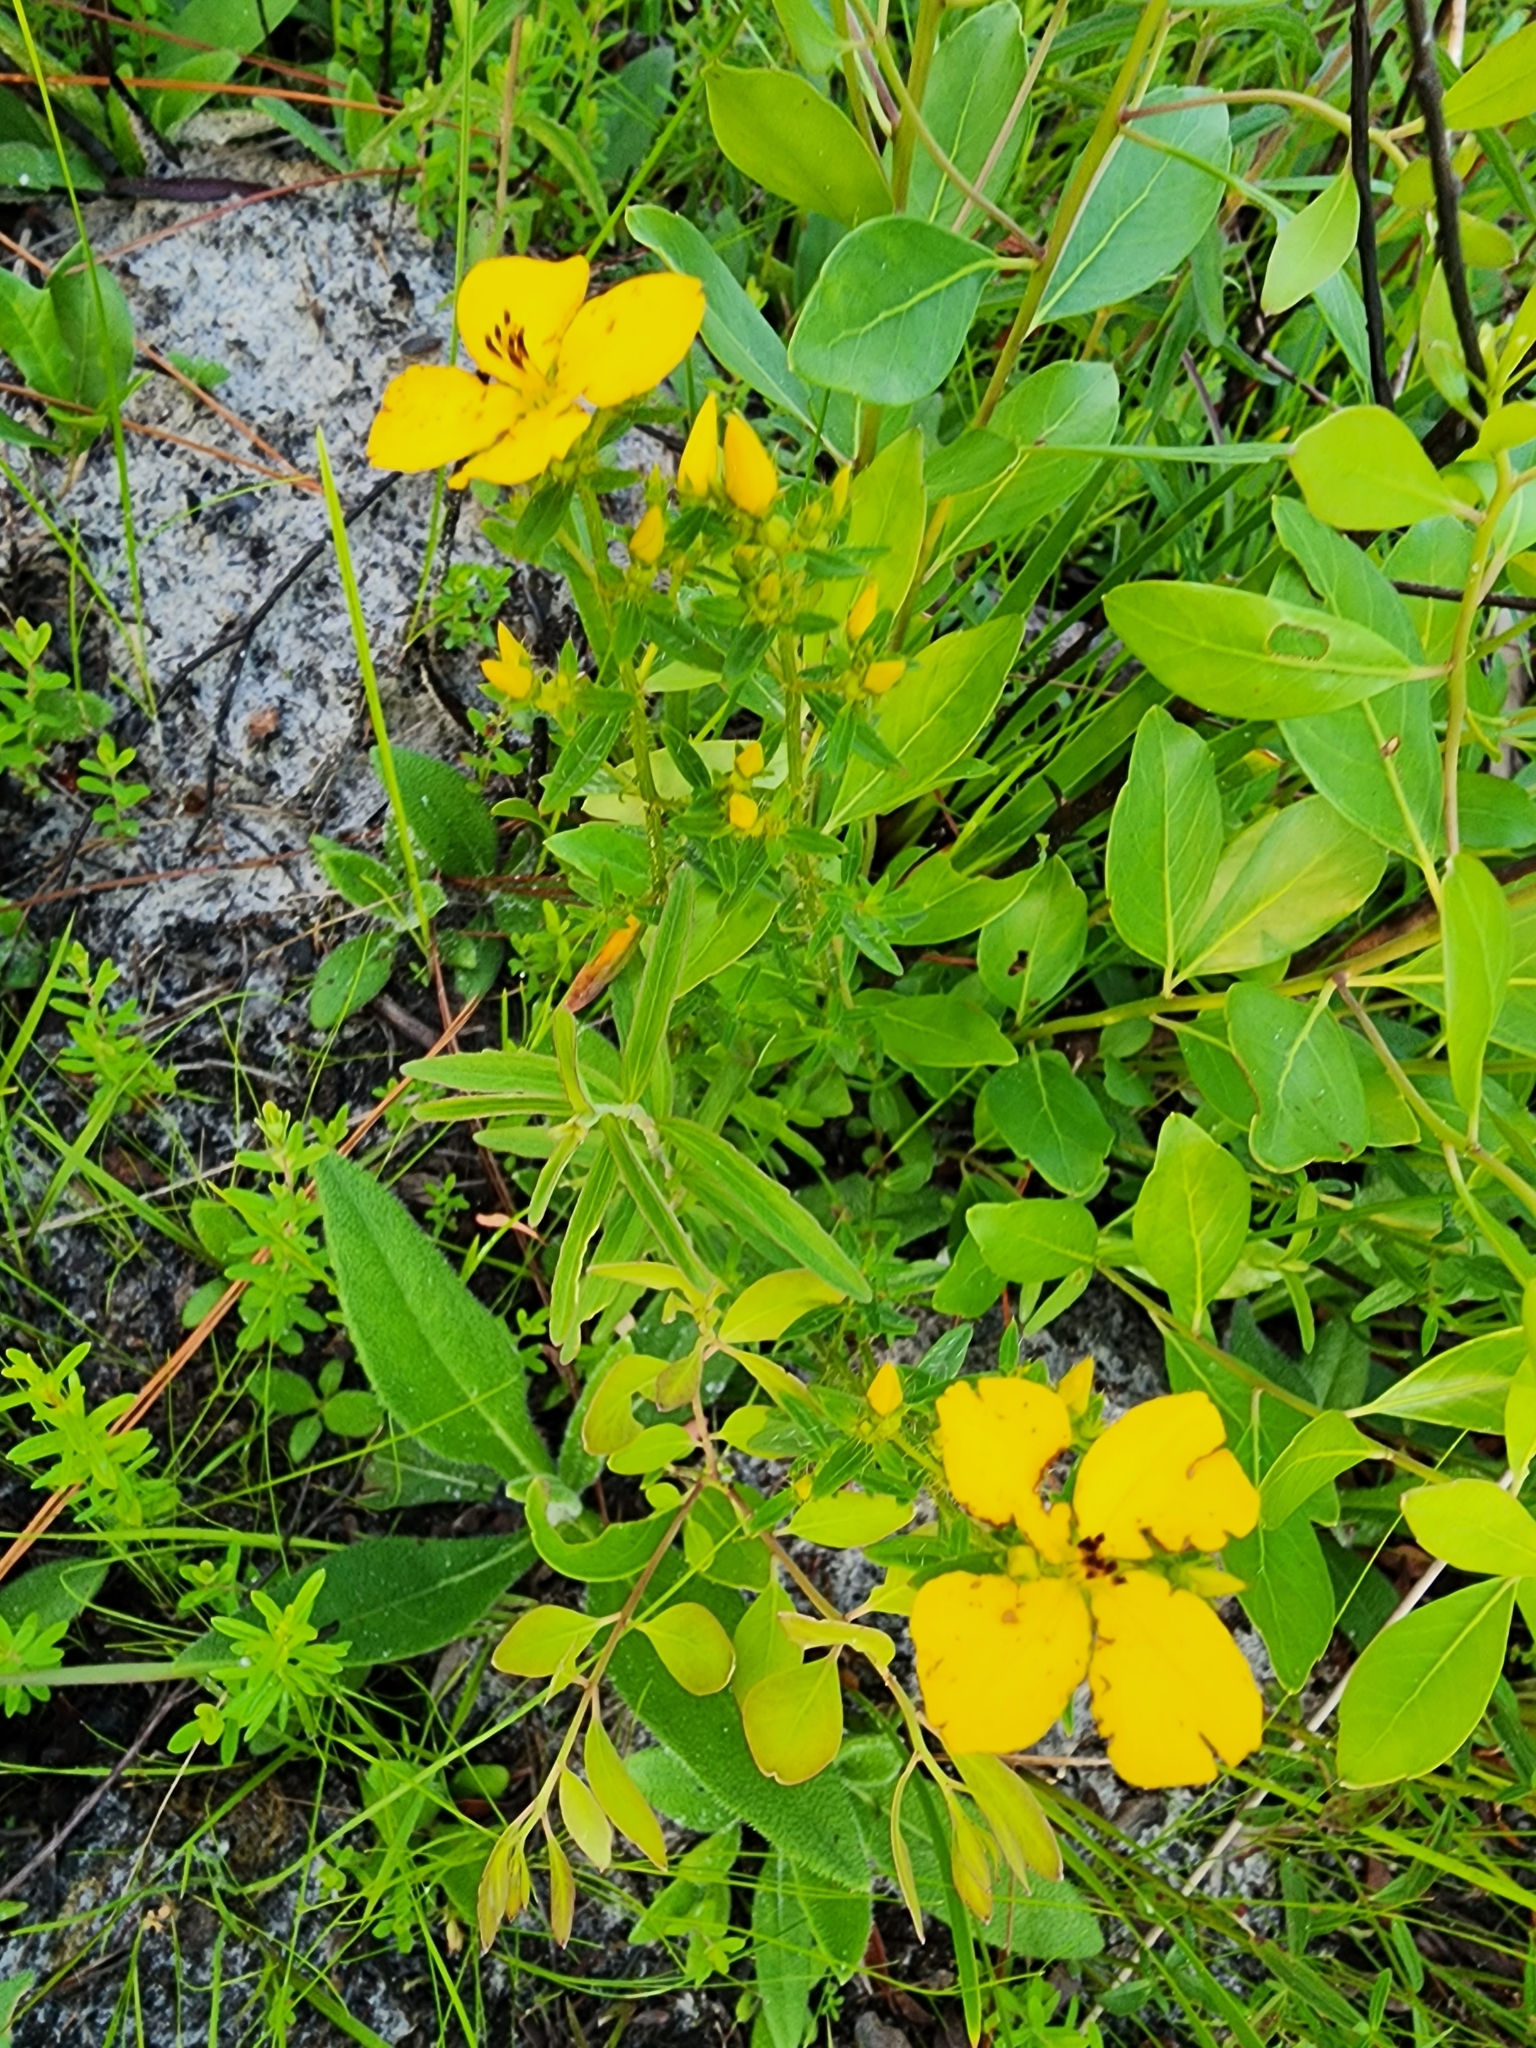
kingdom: Plantae
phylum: Tracheophyta
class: Magnoliopsida
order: Myrtales
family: Melastomataceae
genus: Rhexia
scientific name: Rhexia lutea
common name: Golden meadow-beauty
